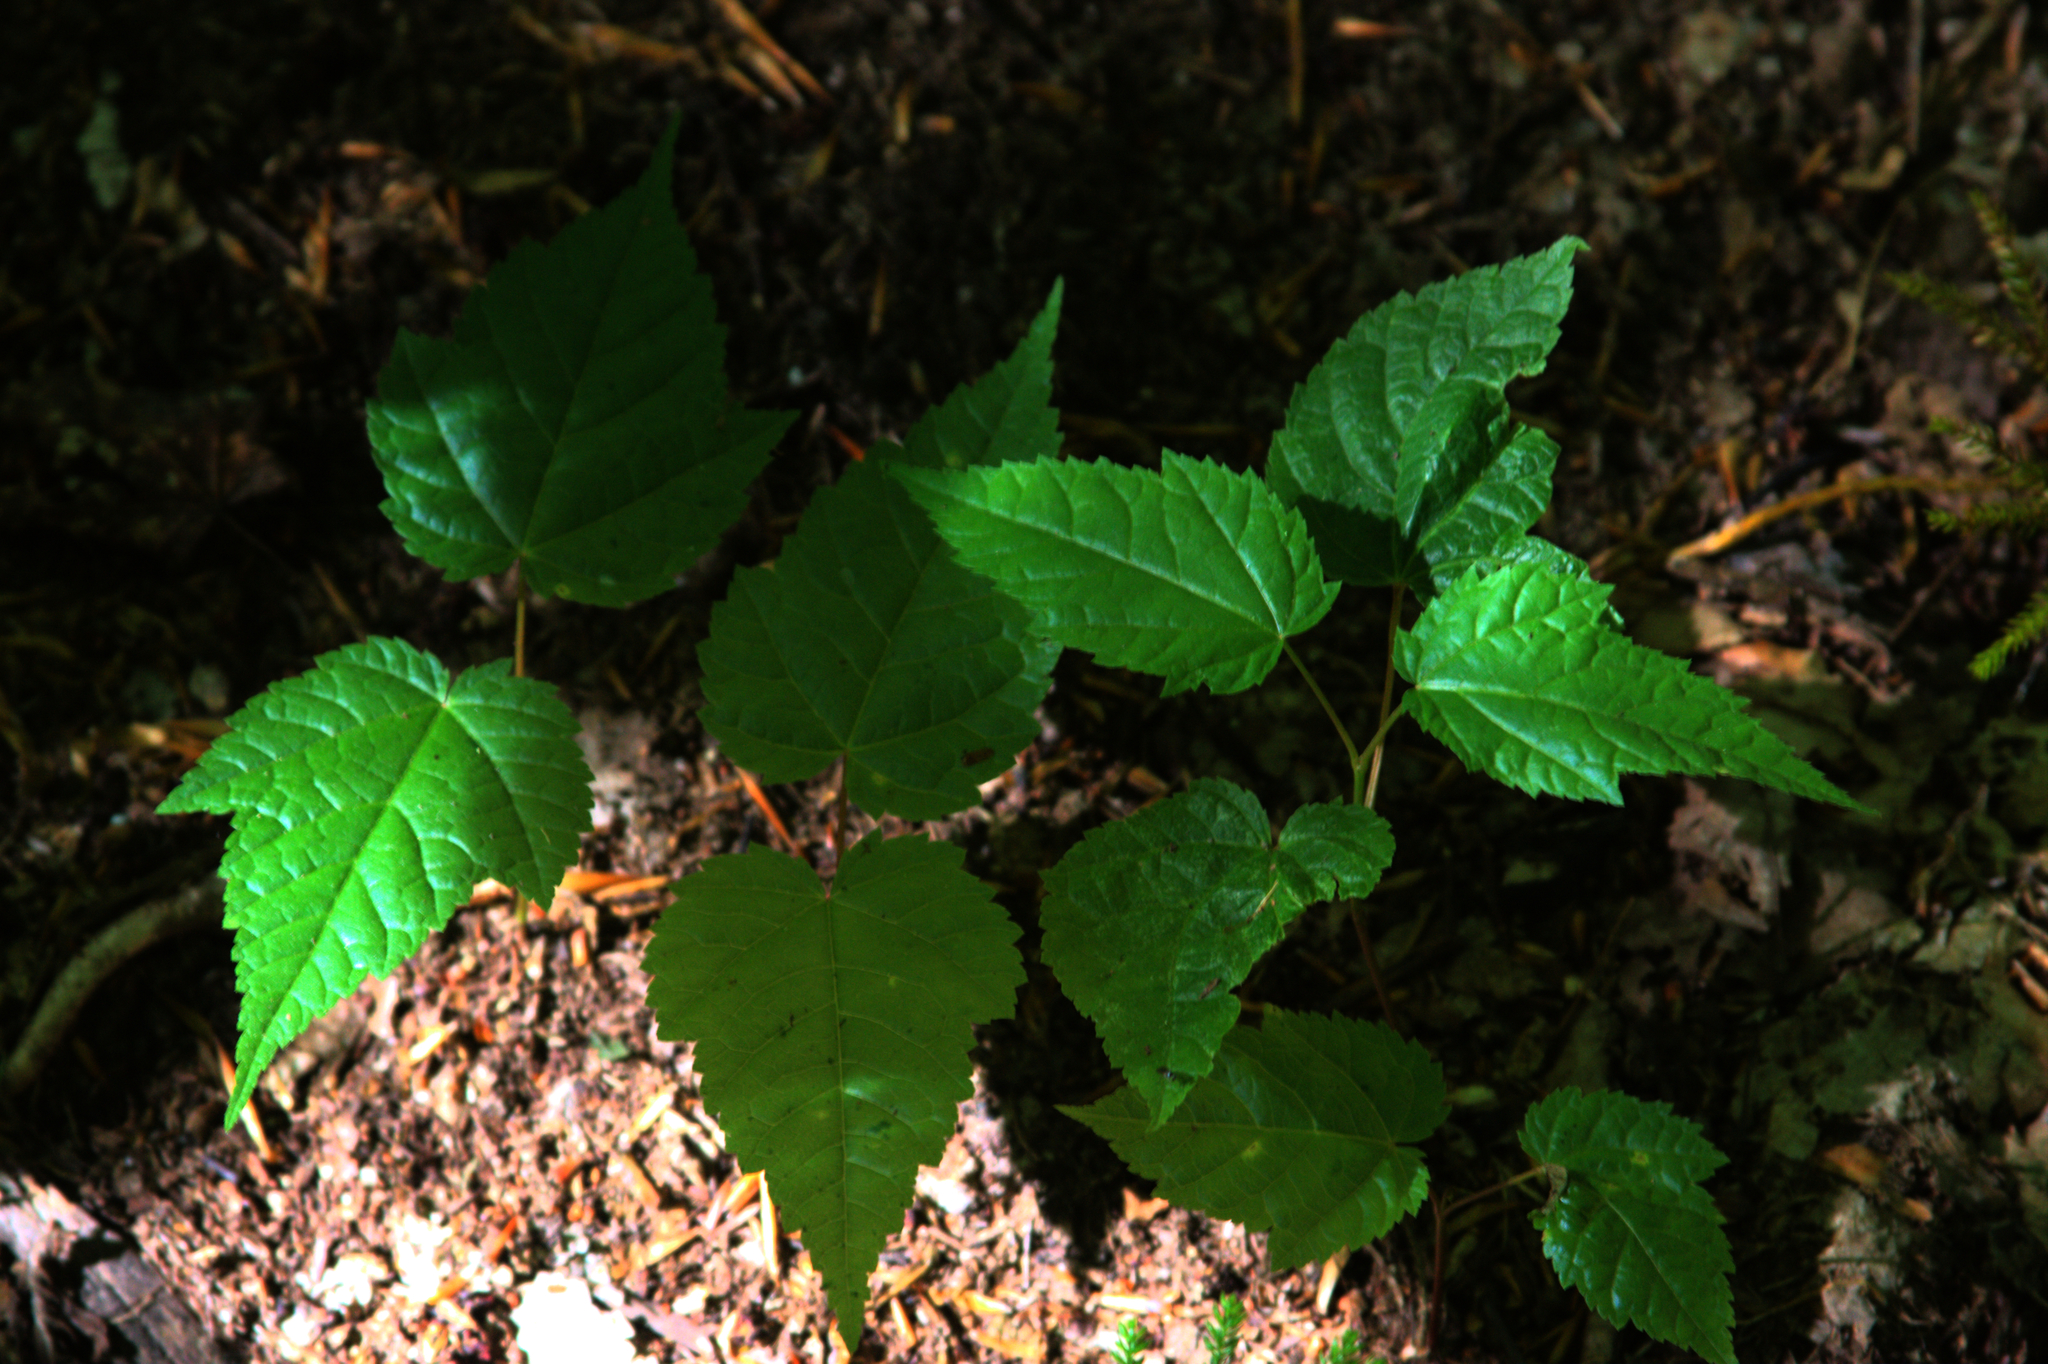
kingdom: Plantae
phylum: Tracheophyta
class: Magnoliopsida
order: Sapindales
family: Sapindaceae
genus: Acer
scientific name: Acer rubrum
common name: Red maple
